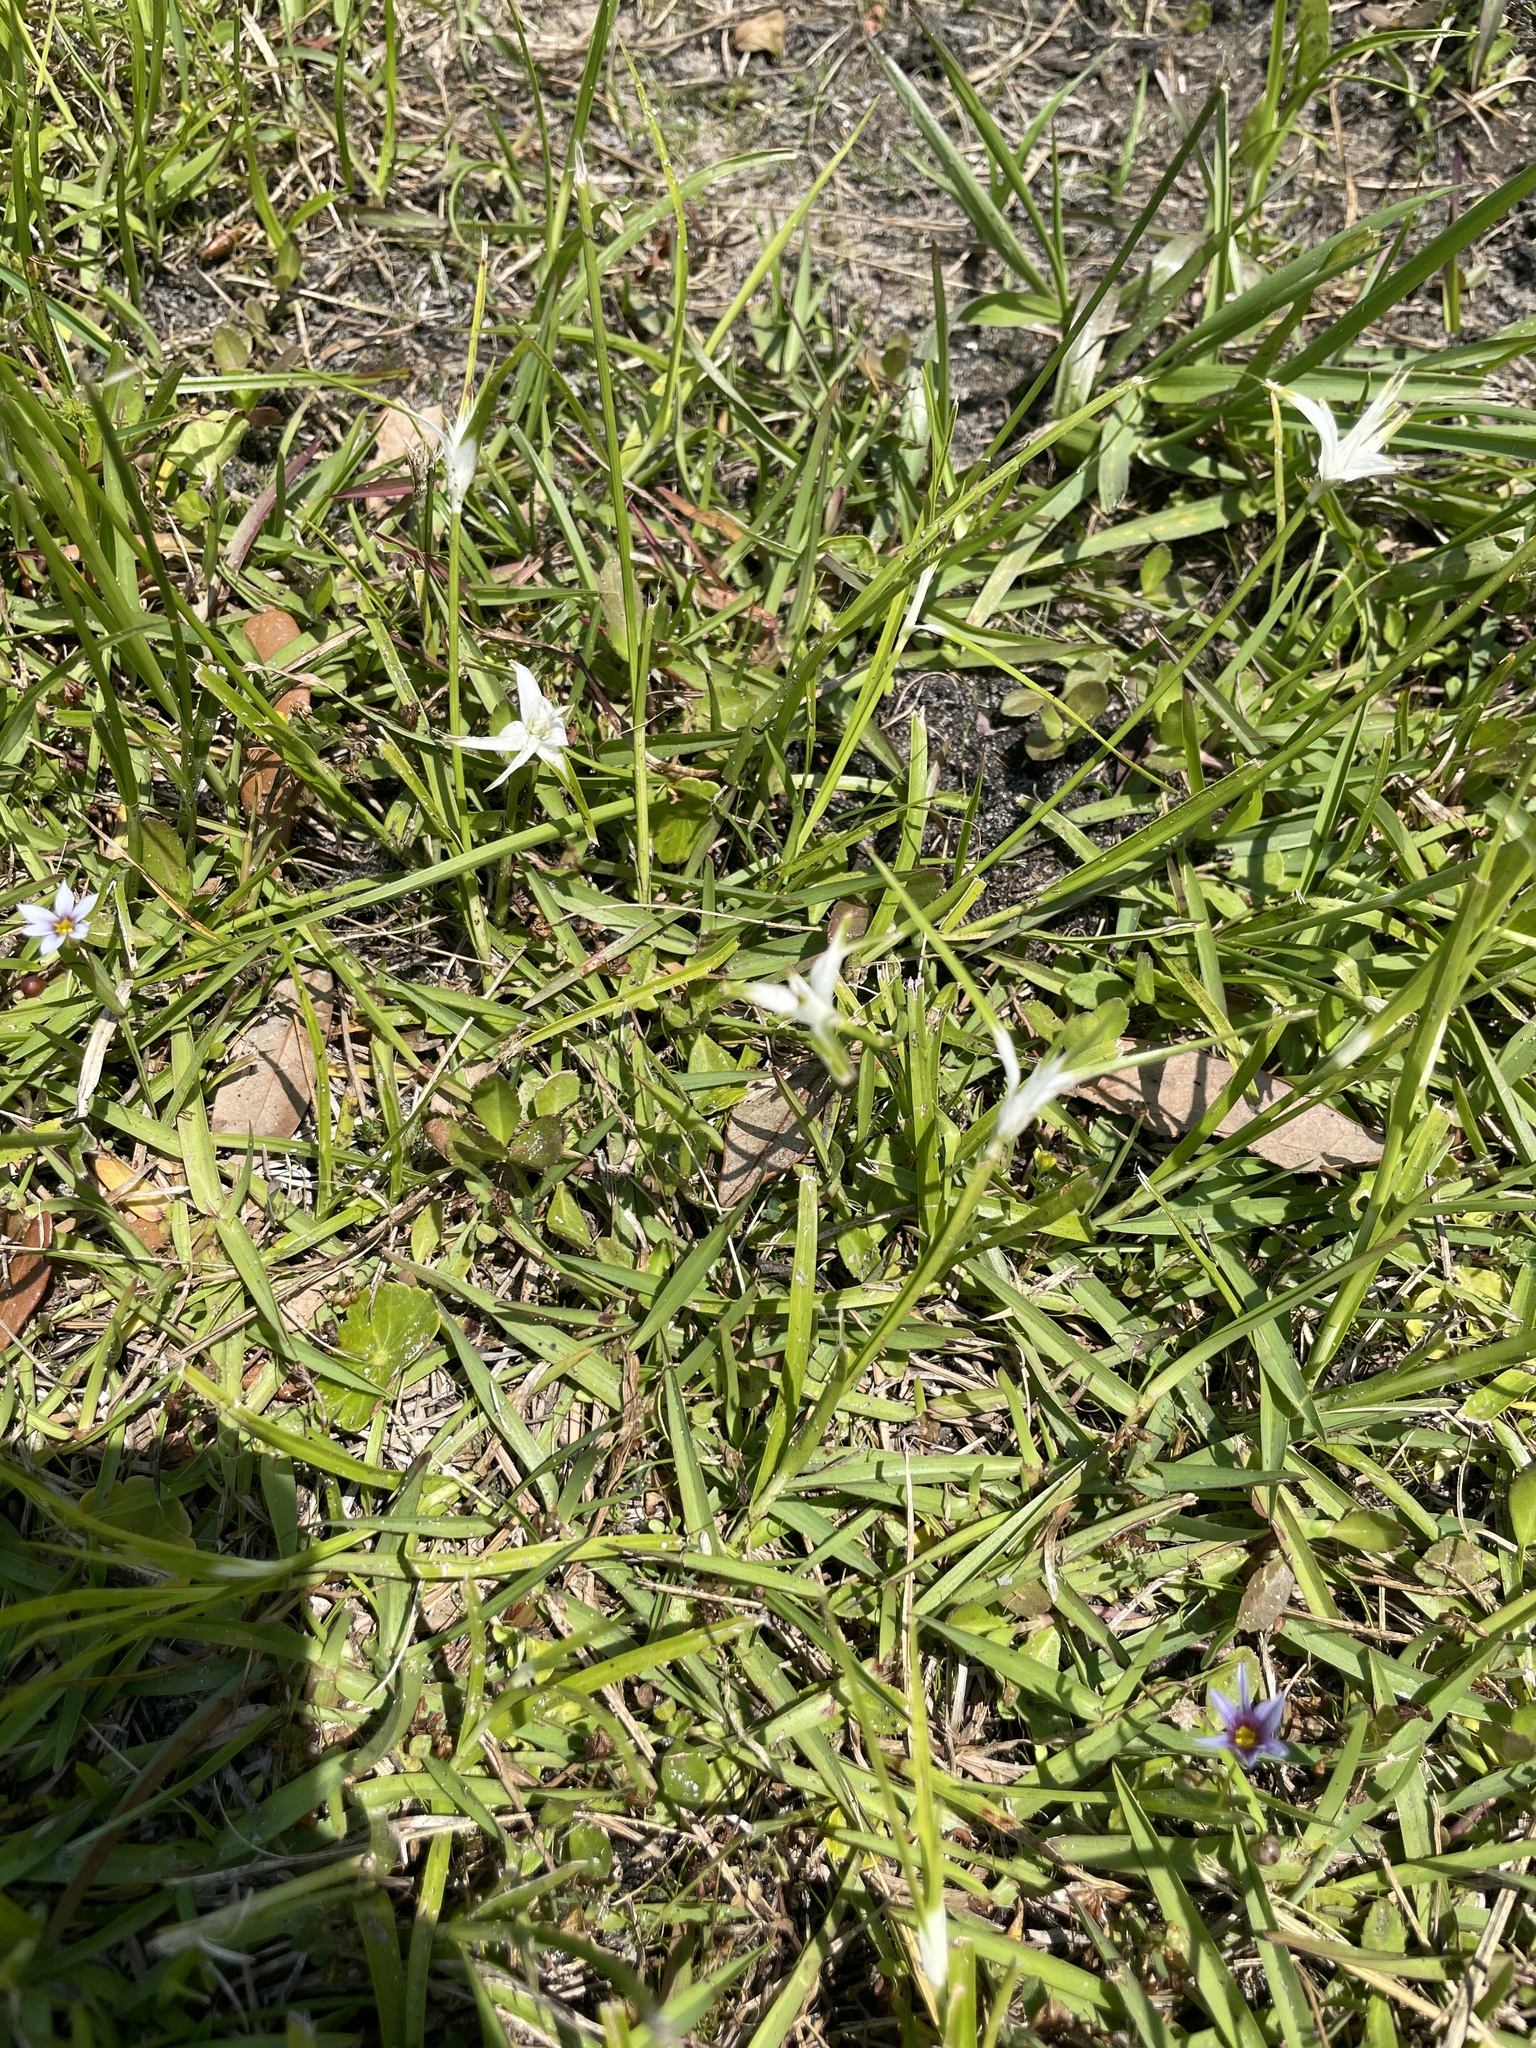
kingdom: Plantae
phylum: Tracheophyta
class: Liliopsida
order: Poales
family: Cyperaceae
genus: Rhynchospora
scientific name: Rhynchospora colorata
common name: Star sedge
